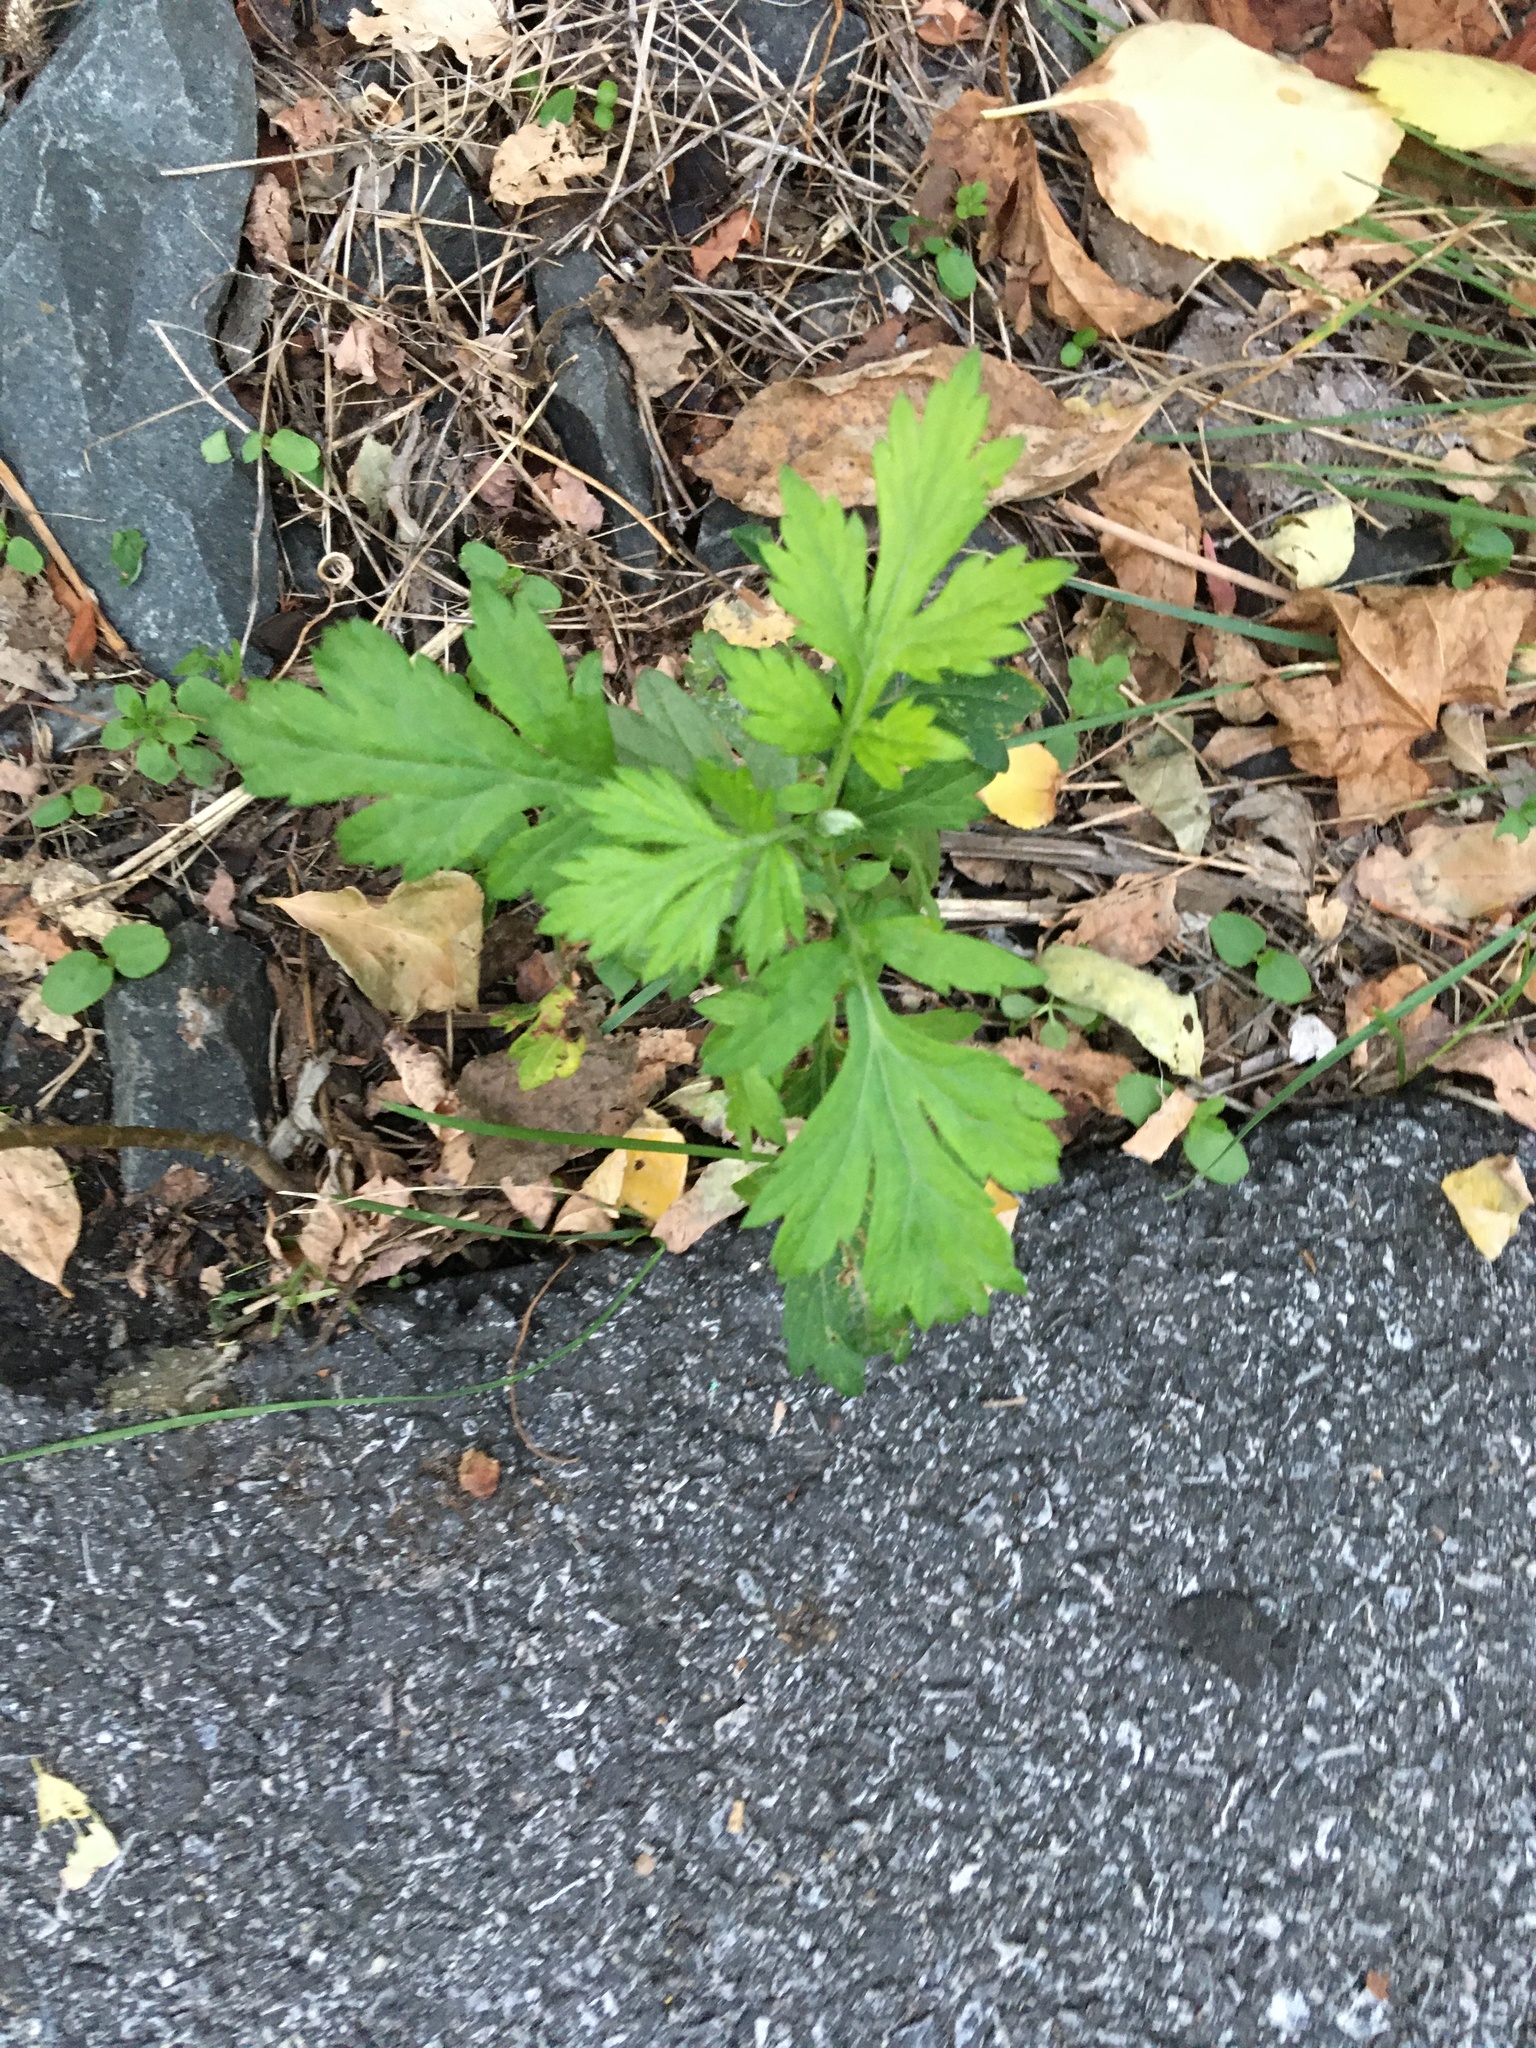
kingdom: Plantae
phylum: Tracheophyta
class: Magnoliopsida
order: Asterales
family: Asteraceae
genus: Artemisia
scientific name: Artemisia vulgaris
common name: Mugwort
